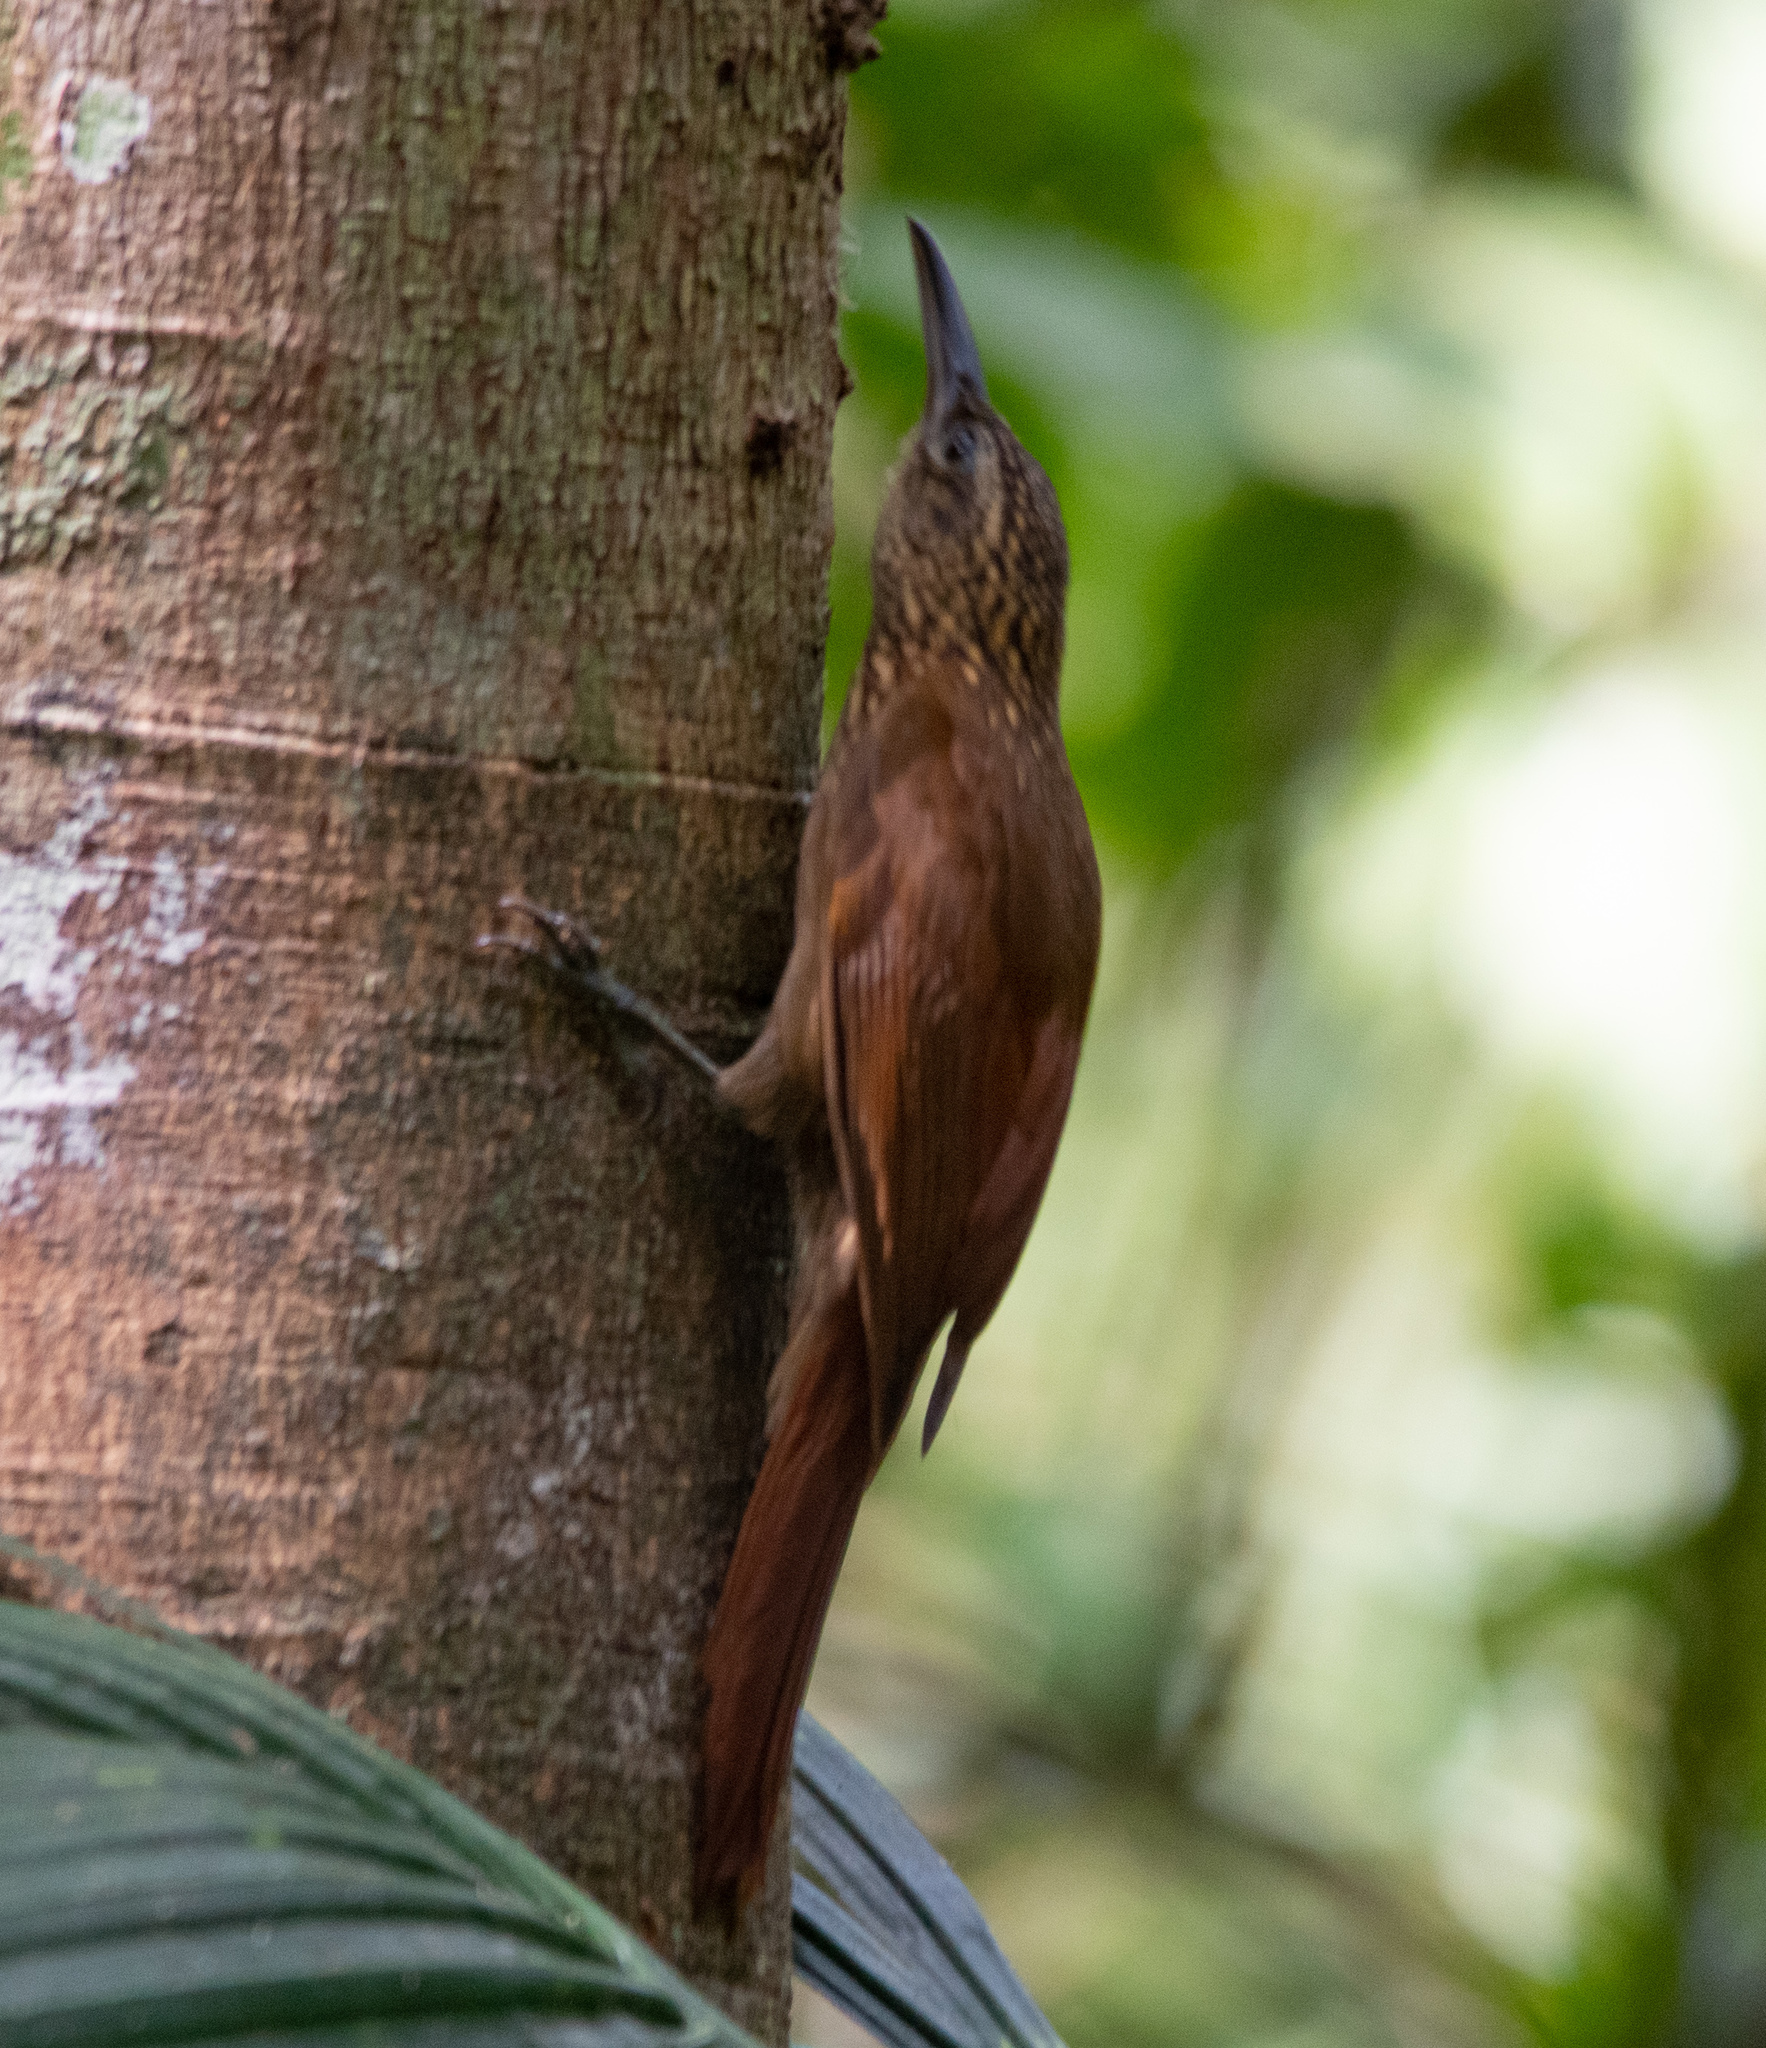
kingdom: Animalia
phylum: Chordata
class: Aves
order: Passeriformes
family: Furnariidae
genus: Dendrocincla
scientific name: Dendrocincla fuliginosa
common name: Plain-brown woodcreeper
